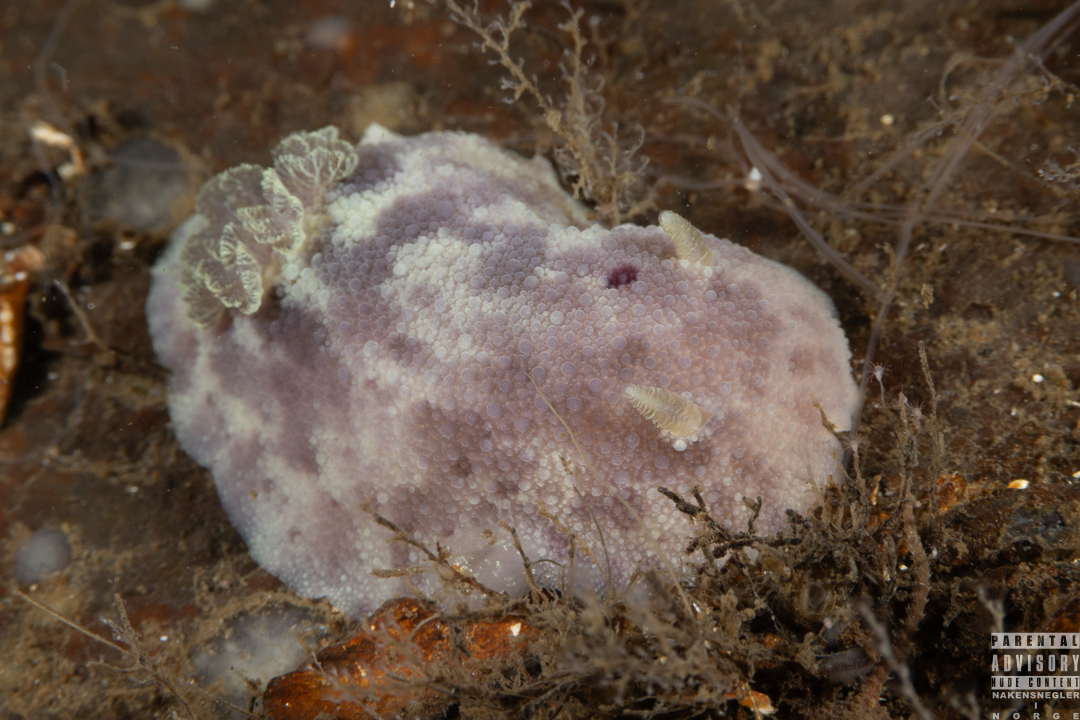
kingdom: Animalia
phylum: Mollusca
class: Gastropoda
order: Nudibranchia
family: Dorididae
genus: Doris
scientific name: Doris pseudoargus
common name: Sea lemon
